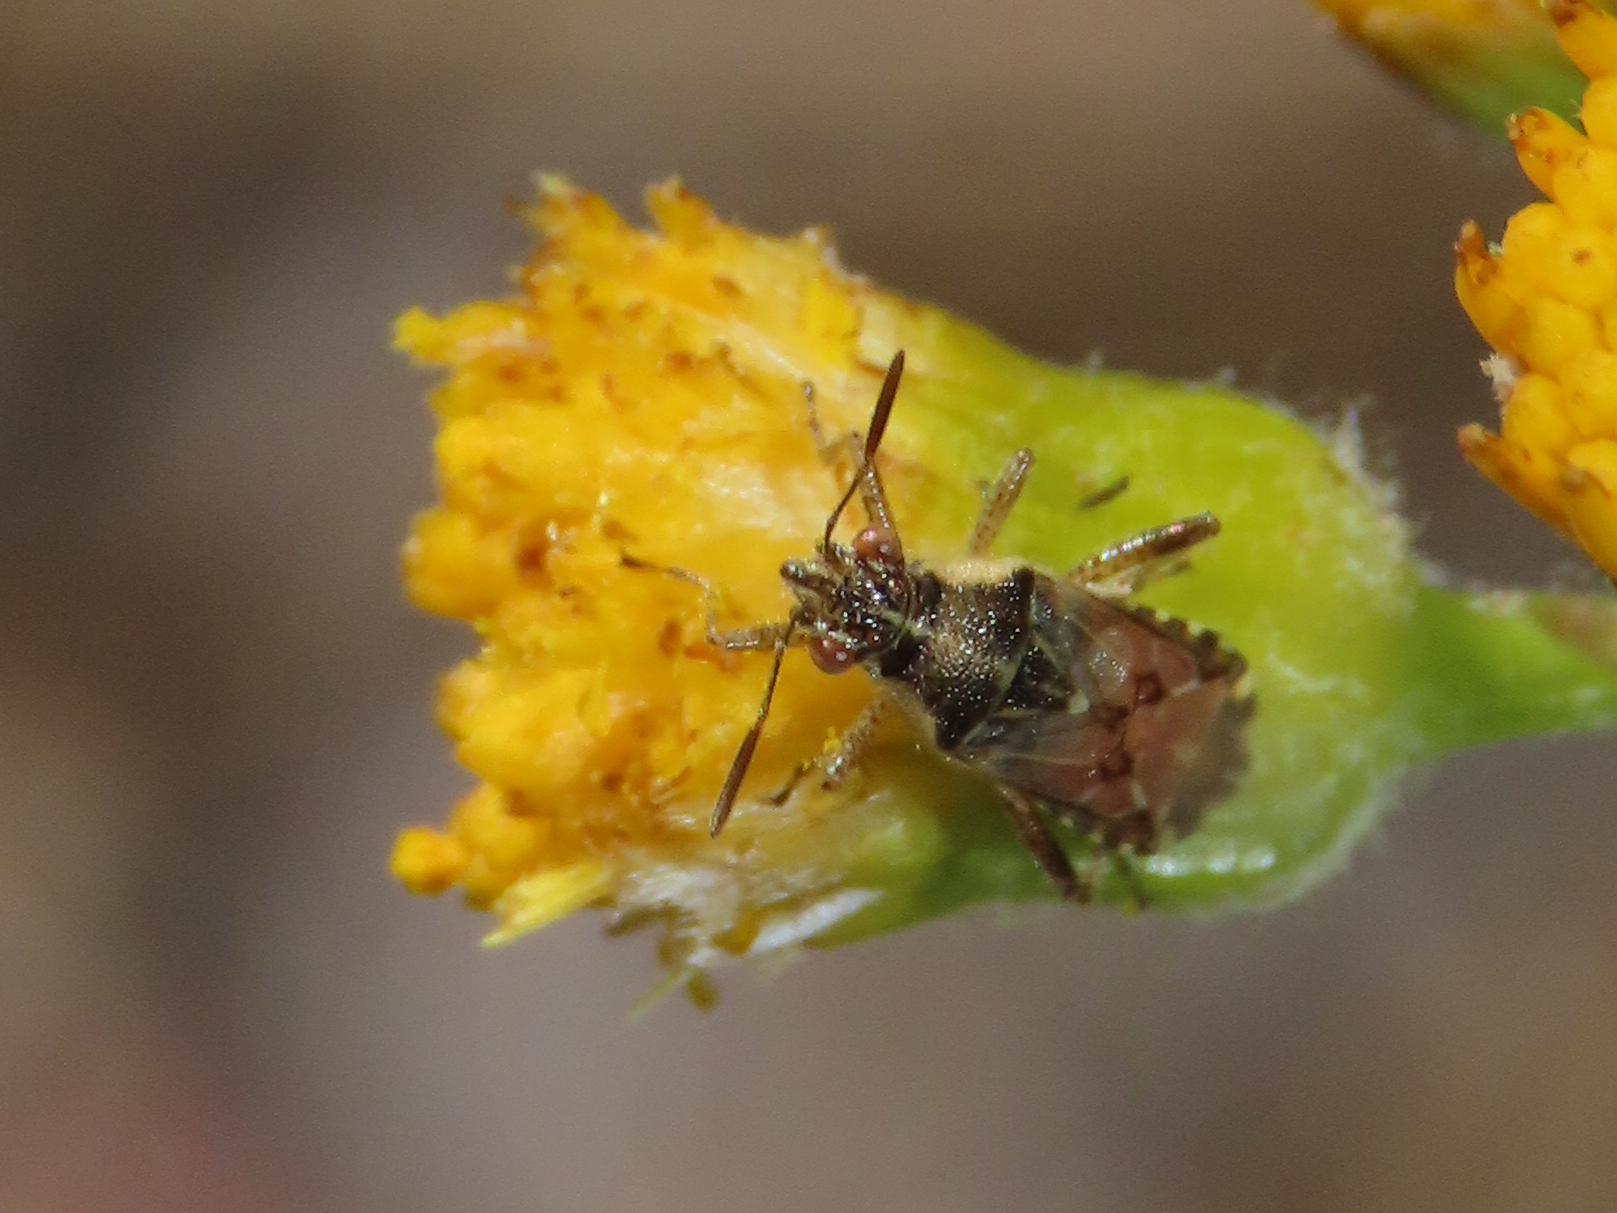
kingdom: Animalia
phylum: Arthropoda
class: Insecta
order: Hemiptera
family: Rhopalidae
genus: Liorhyssus
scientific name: Liorhyssus hyalinus
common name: Scentless plant bug
